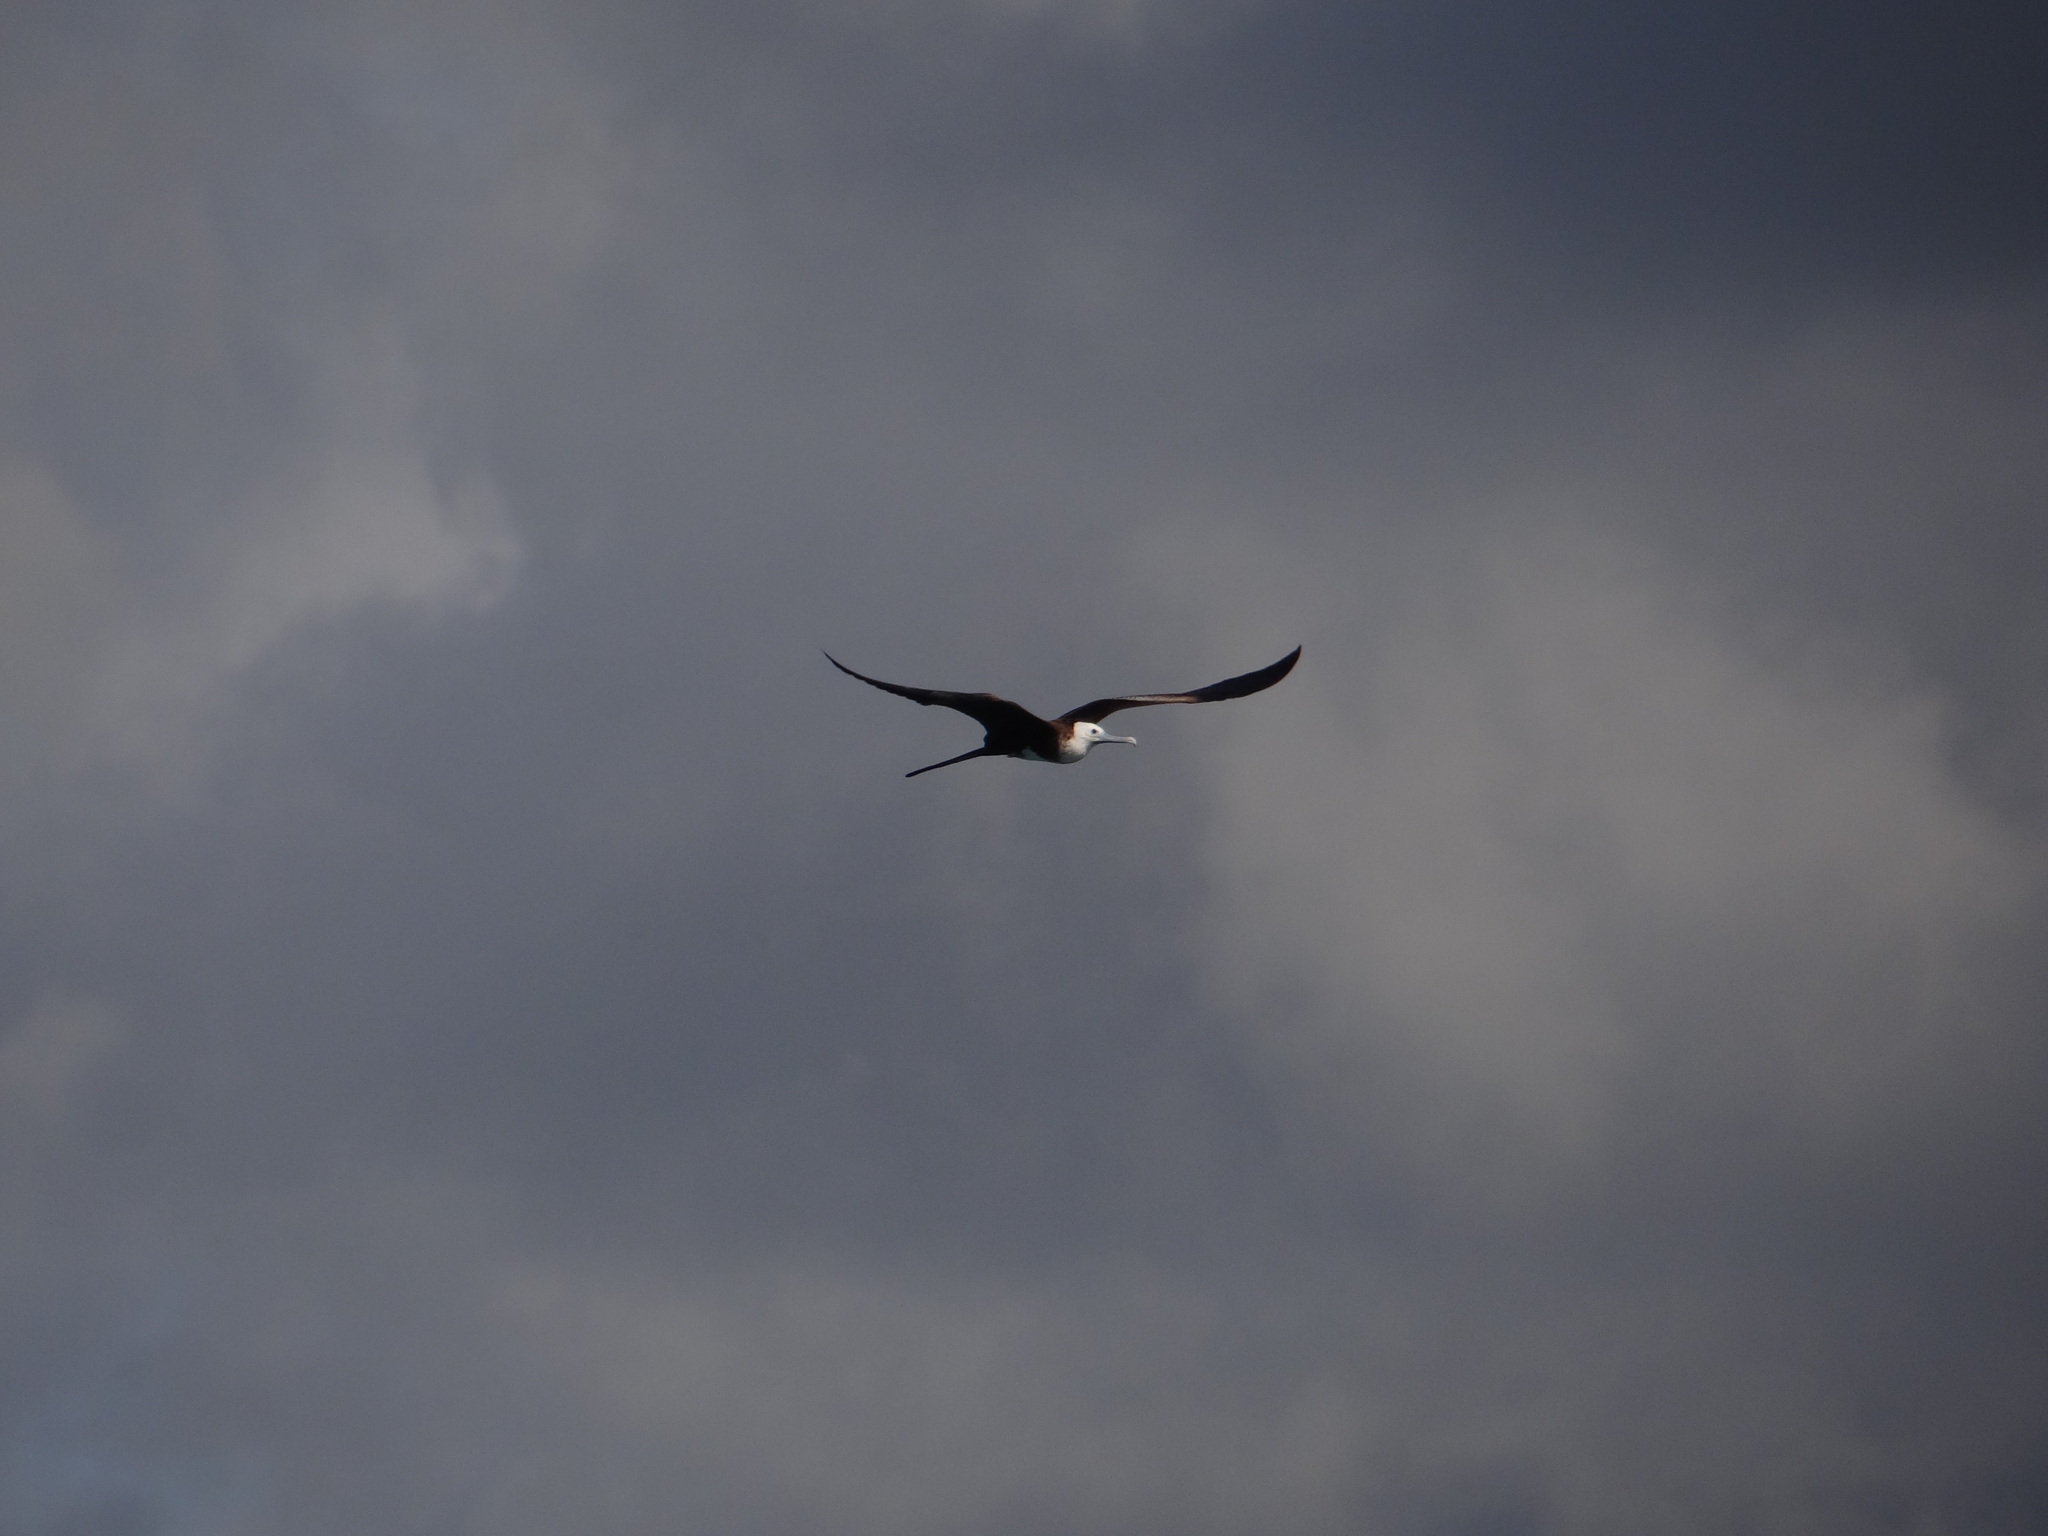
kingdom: Animalia
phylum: Chordata
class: Aves
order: Suliformes
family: Fregatidae
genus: Fregata
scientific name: Fregata magnificens
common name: Magnificent frigatebird
